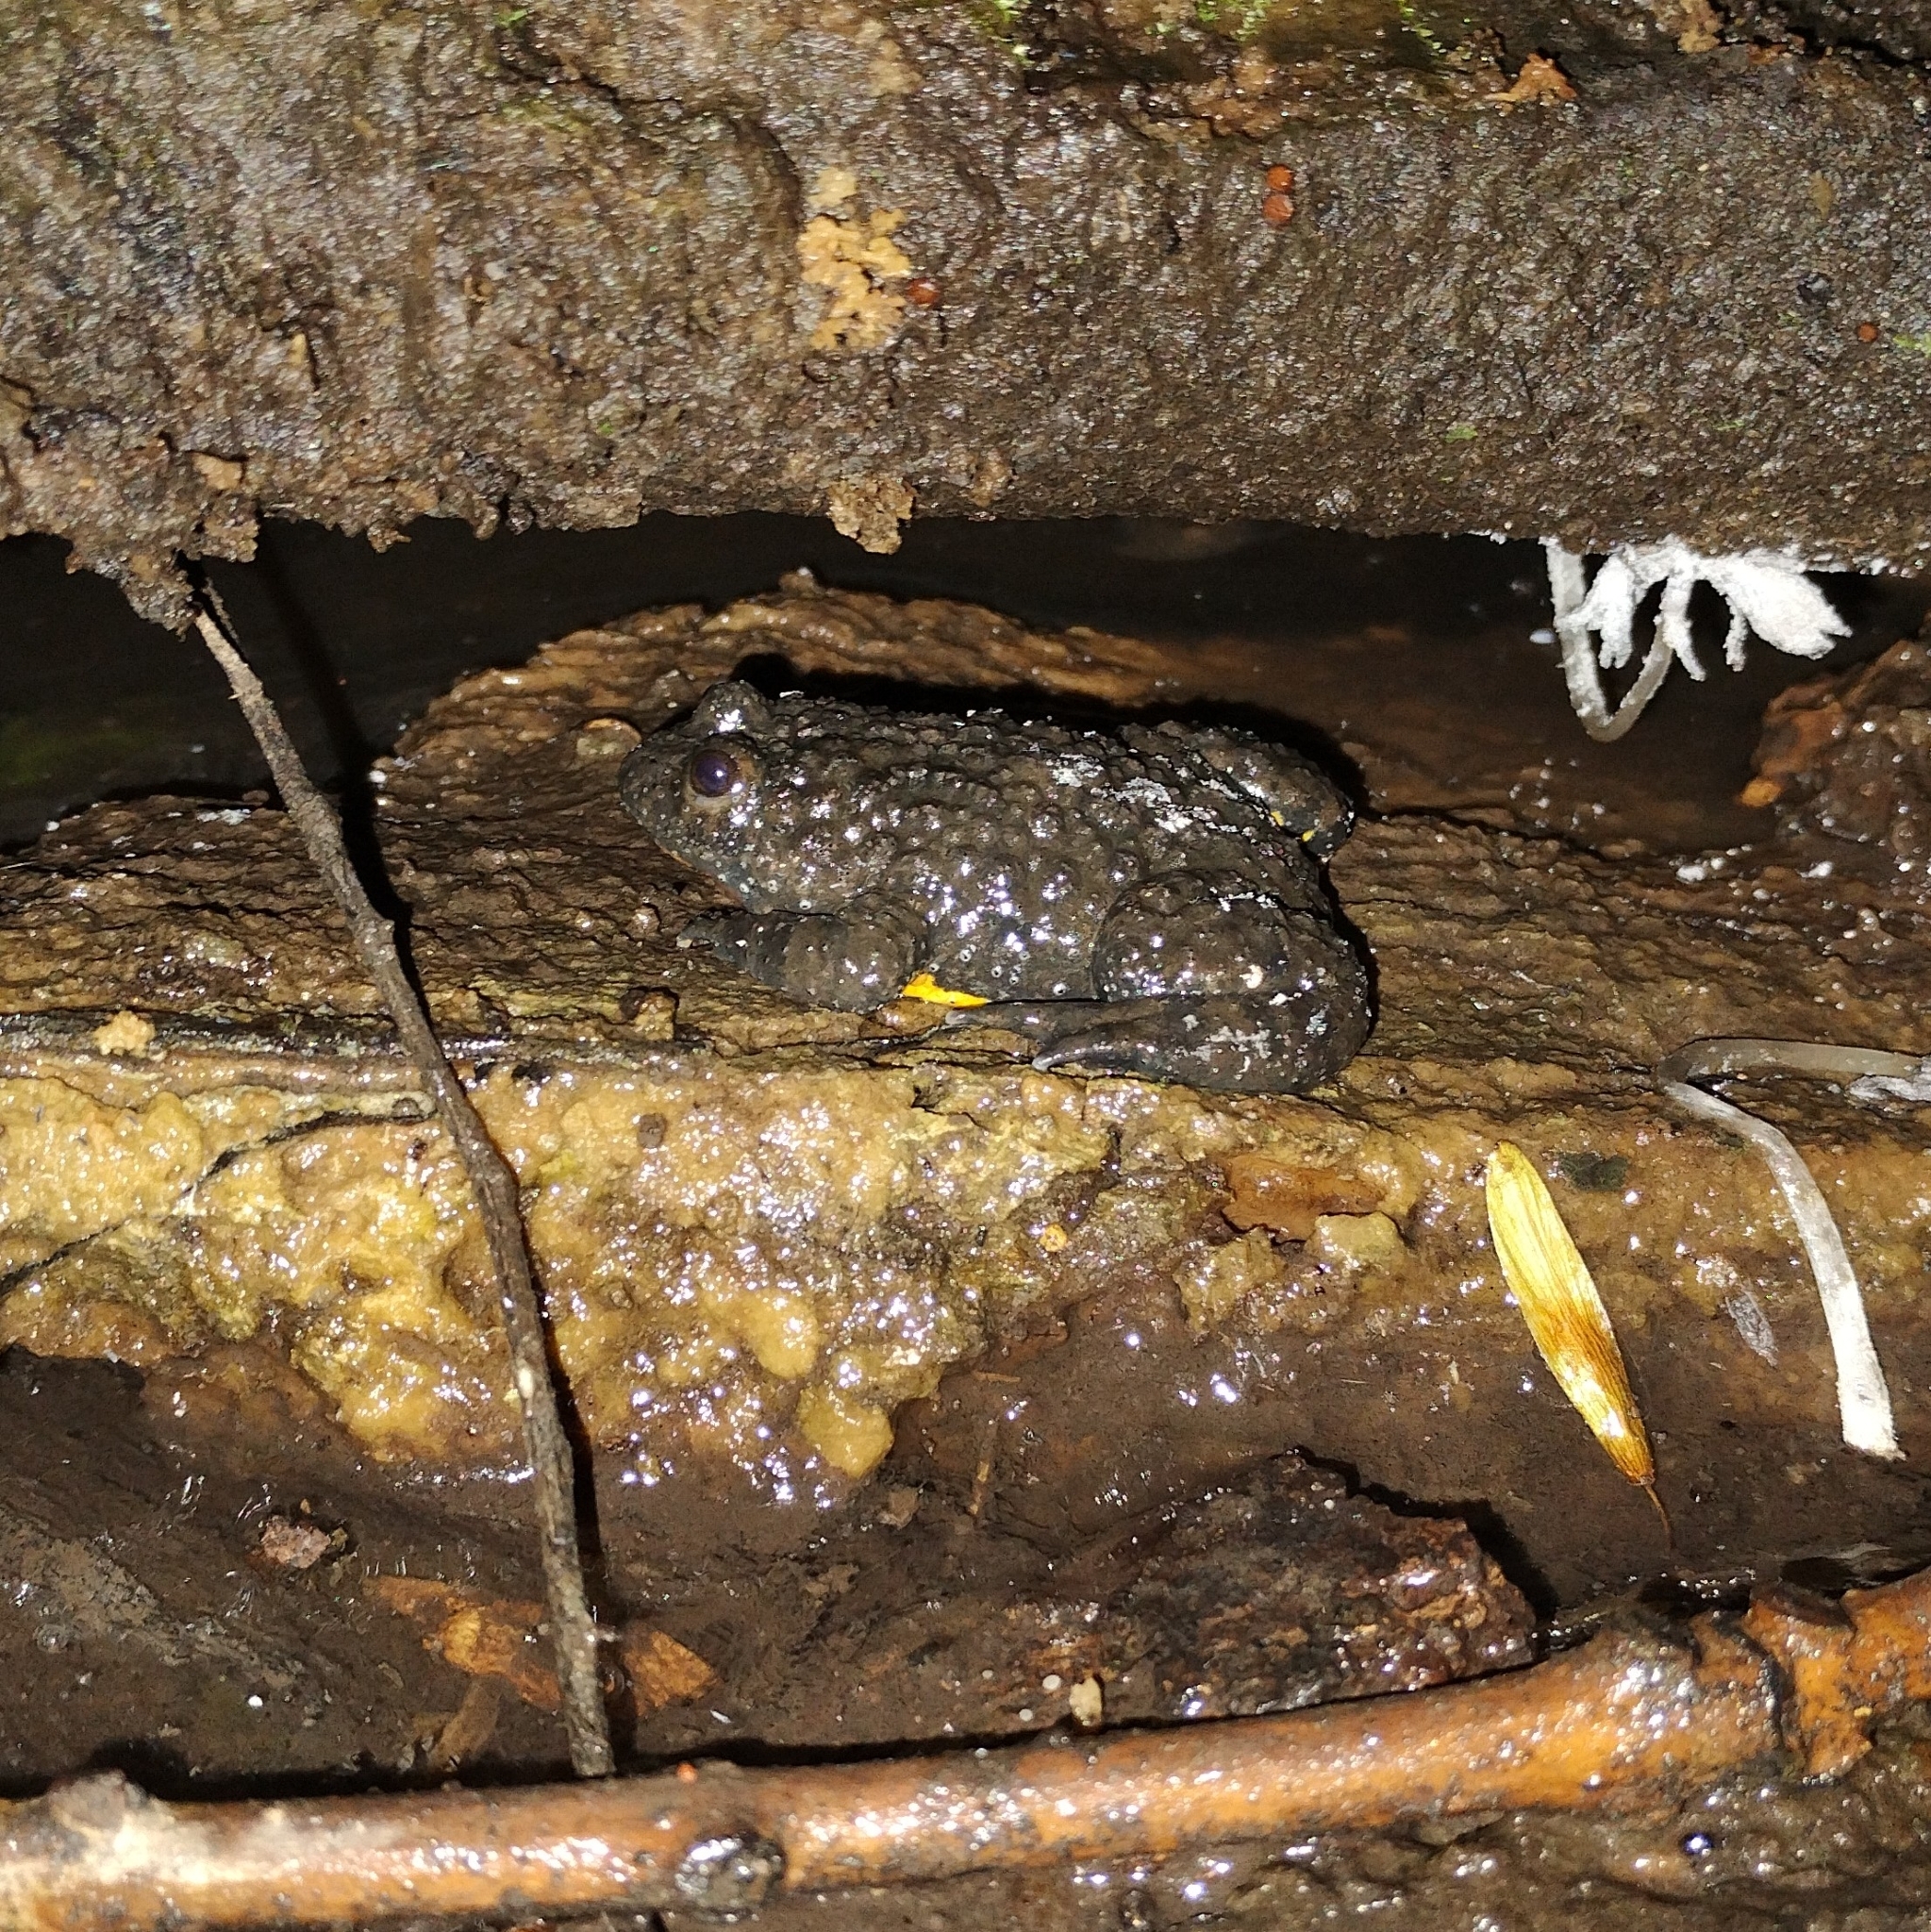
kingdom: Animalia
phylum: Chordata
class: Amphibia
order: Anura
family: Bombinatoridae
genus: Bombina
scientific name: Bombina variegata
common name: Yellow-bellied toad
